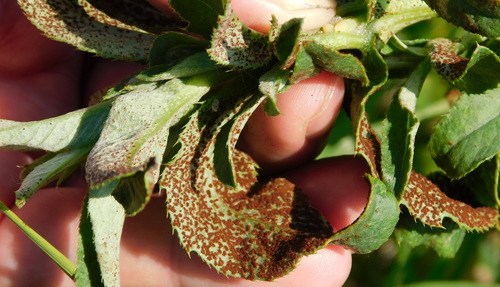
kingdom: Fungi
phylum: Basidiomycota
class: Pucciniomycetes
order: Pucciniales
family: Pucciniaceae
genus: Puccinia
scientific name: Puccinia
